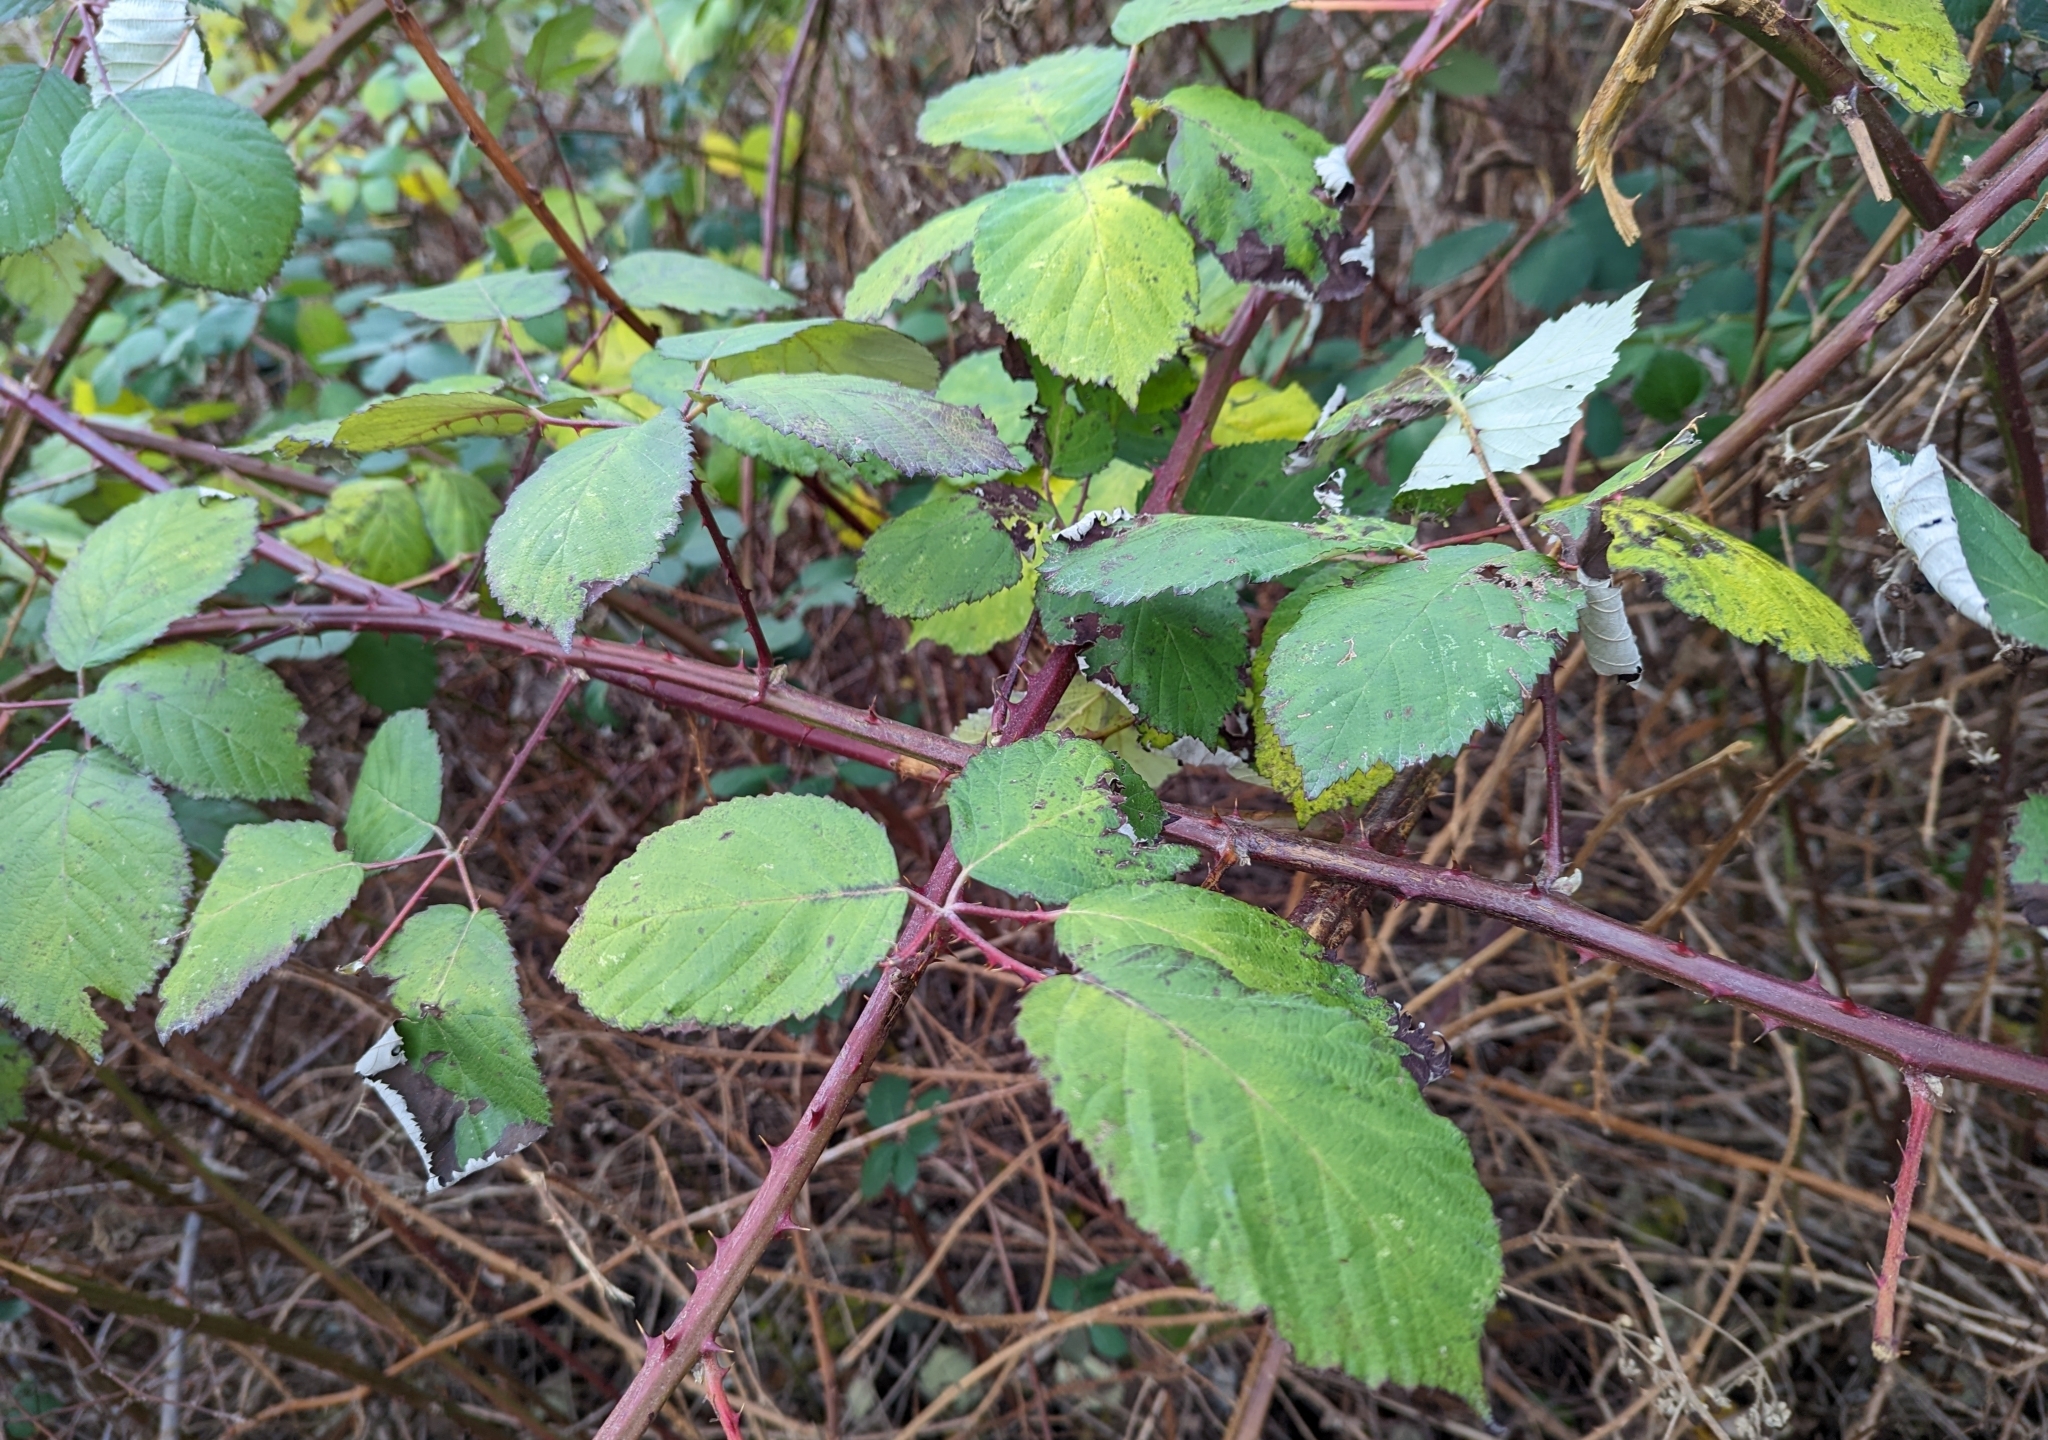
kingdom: Plantae
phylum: Tracheophyta
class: Magnoliopsida
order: Rosales
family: Rosaceae
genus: Rubus
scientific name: Rubus bifrons
